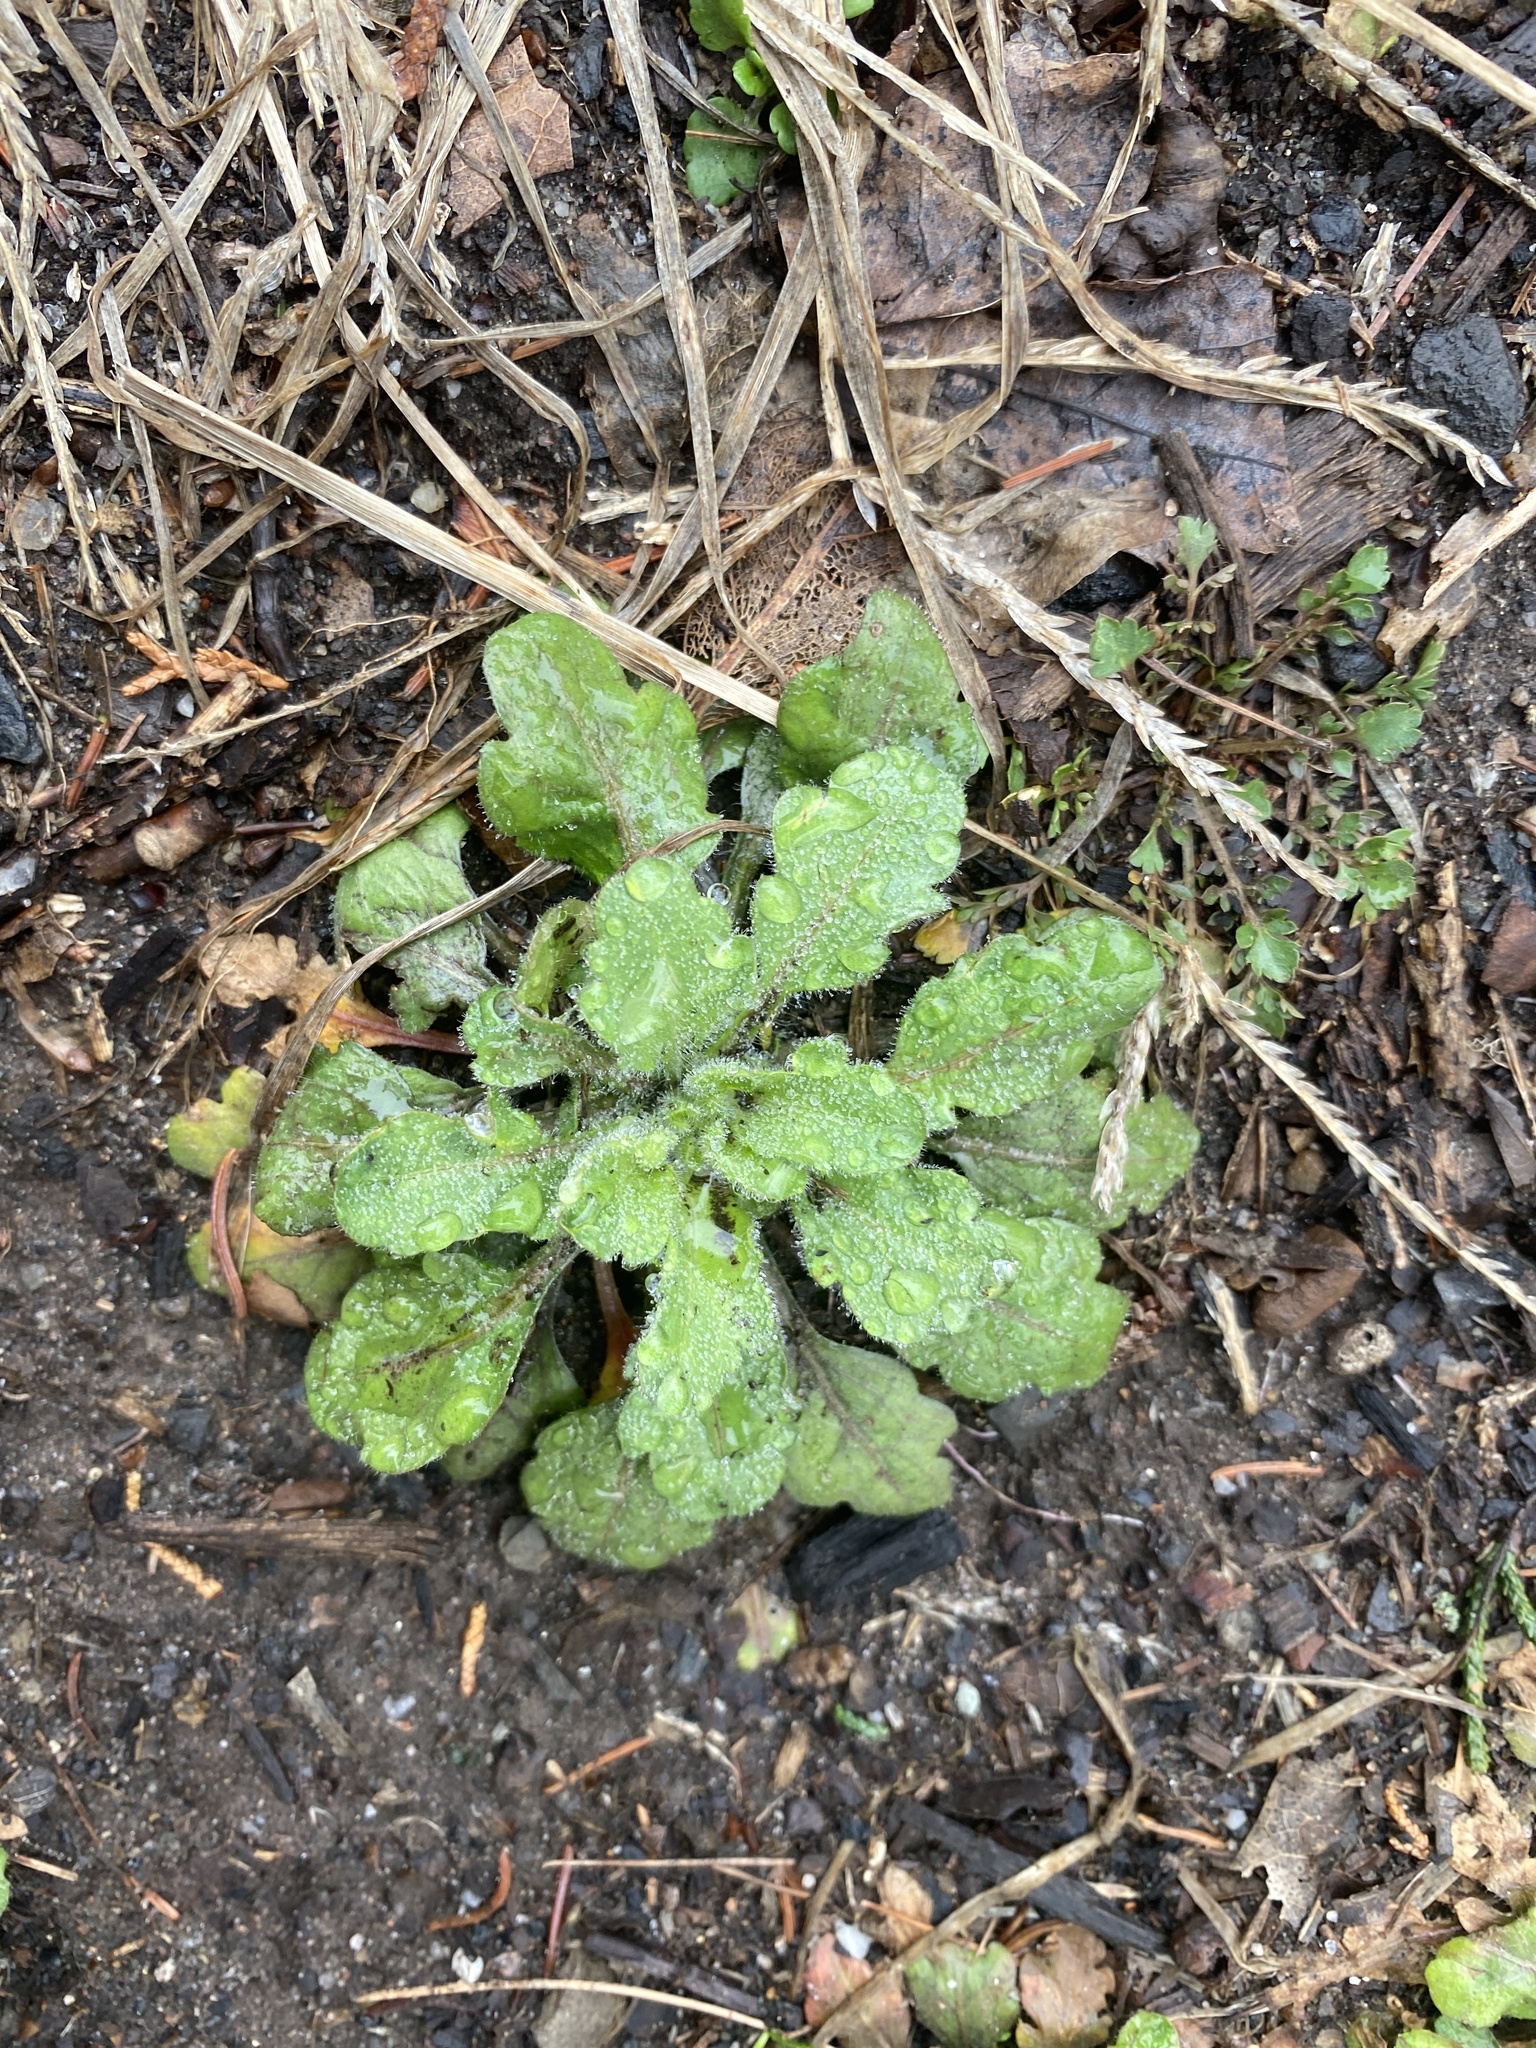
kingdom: Plantae
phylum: Tracheophyta
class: Magnoliopsida
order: Asterales
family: Asteraceae
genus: Erigeron
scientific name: Erigeron canadensis
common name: Canadian fleabane
